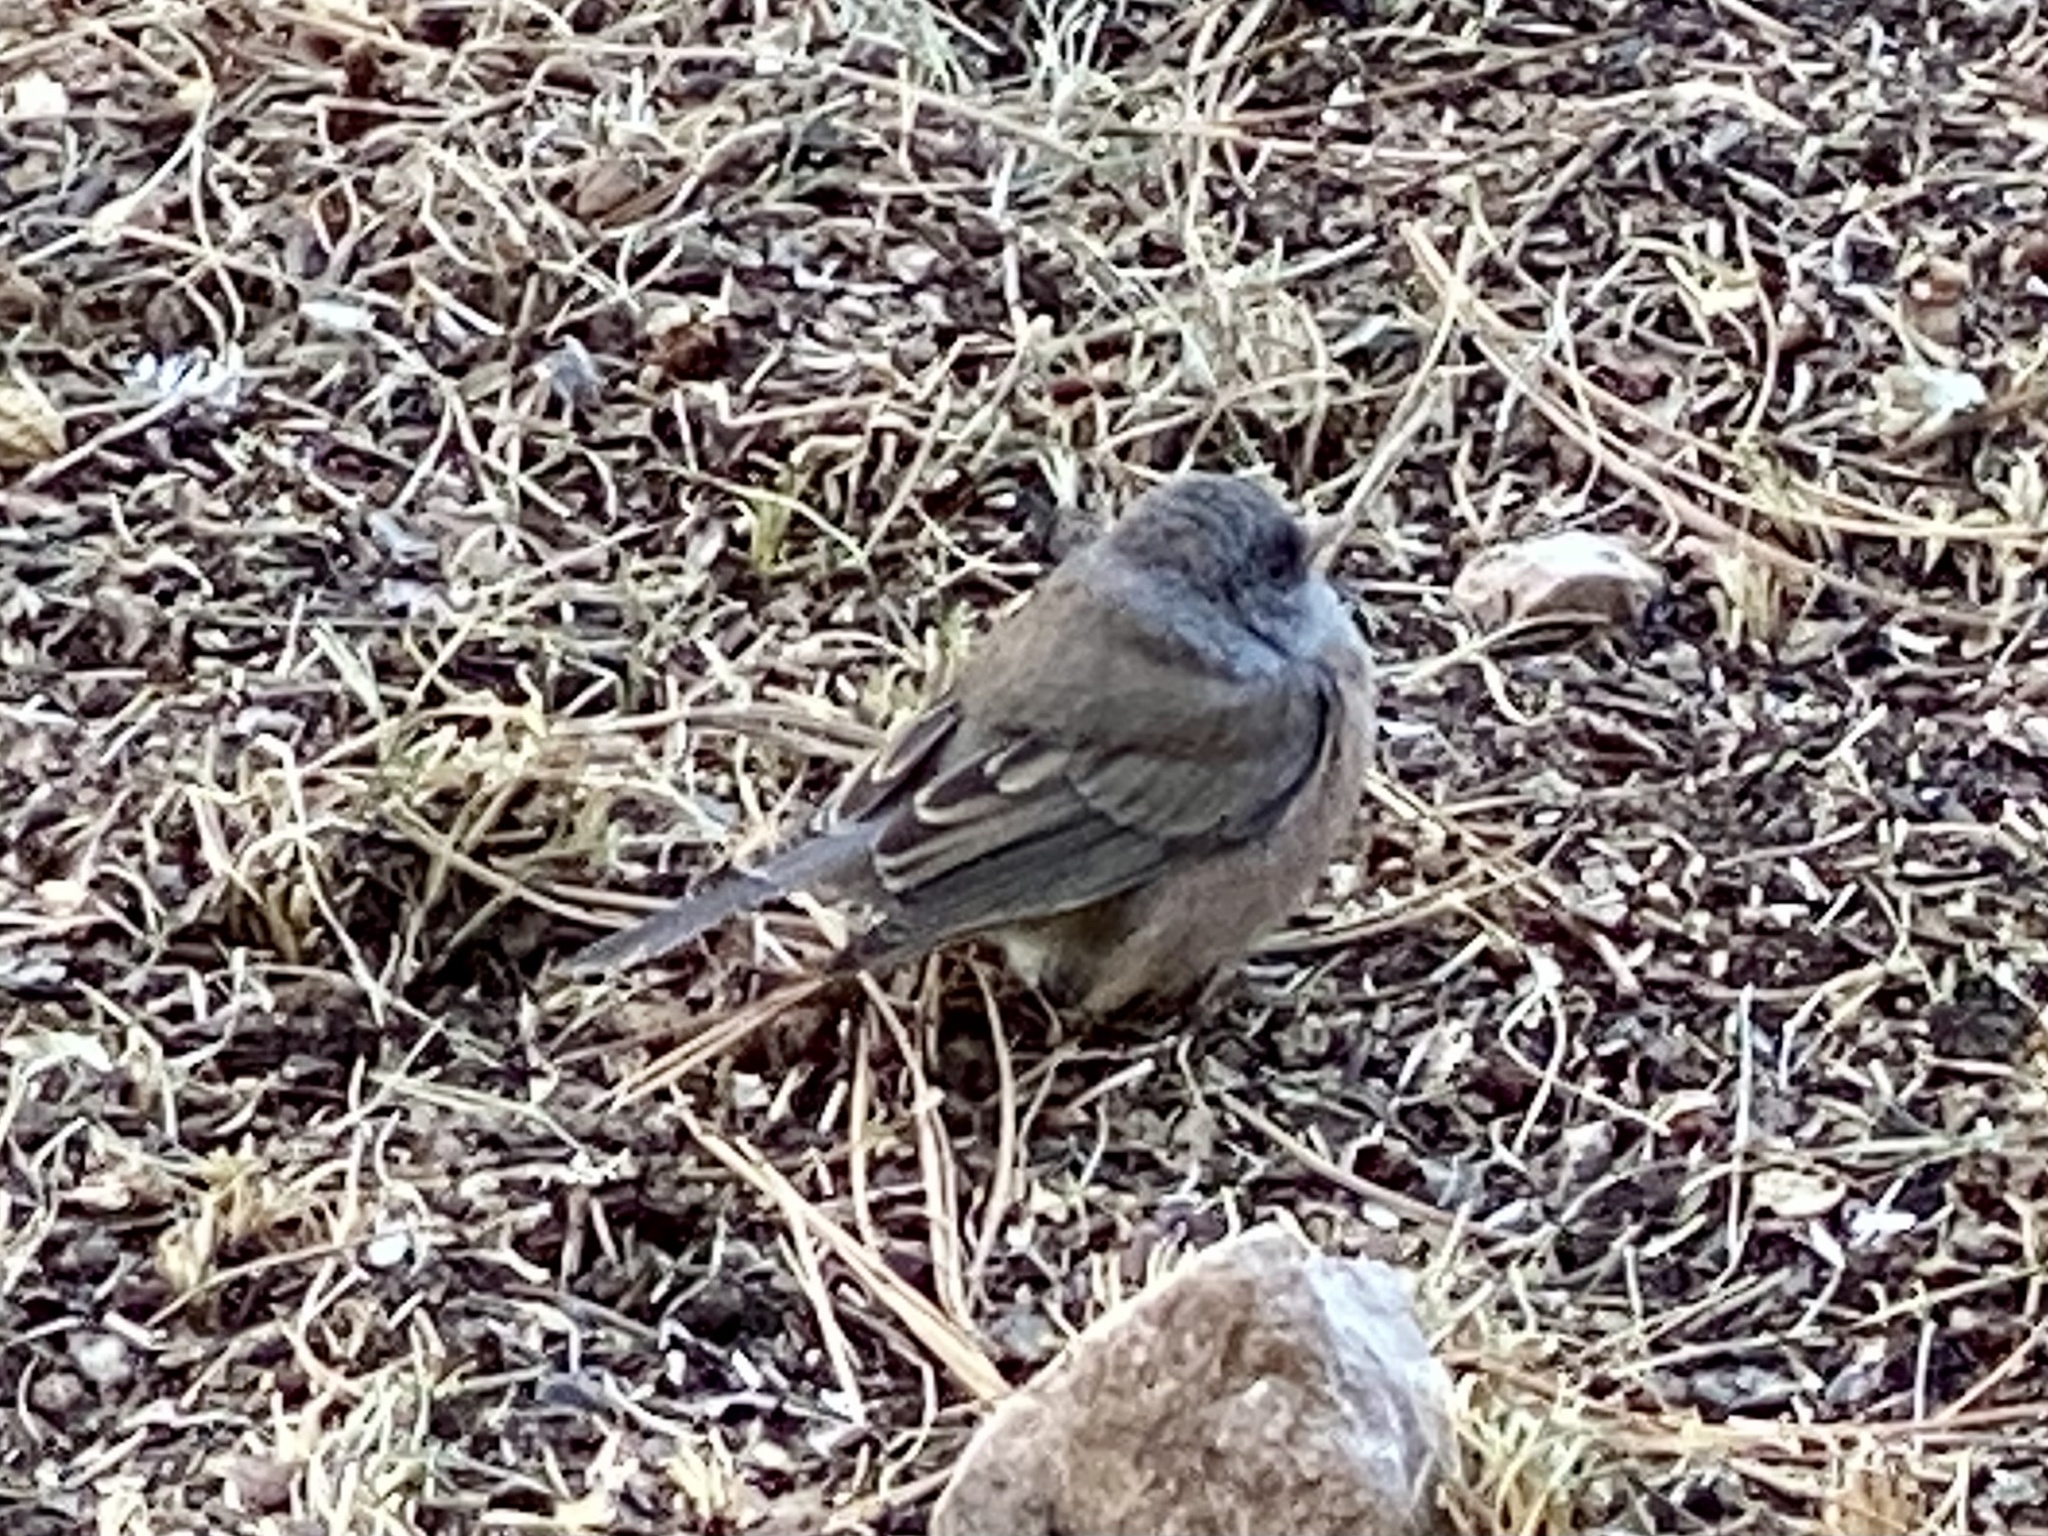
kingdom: Animalia
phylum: Chordata
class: Aves
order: Passeriformes
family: Passerellidae
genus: Junco
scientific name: Junco hyemalis
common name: Dark-eyed junco
